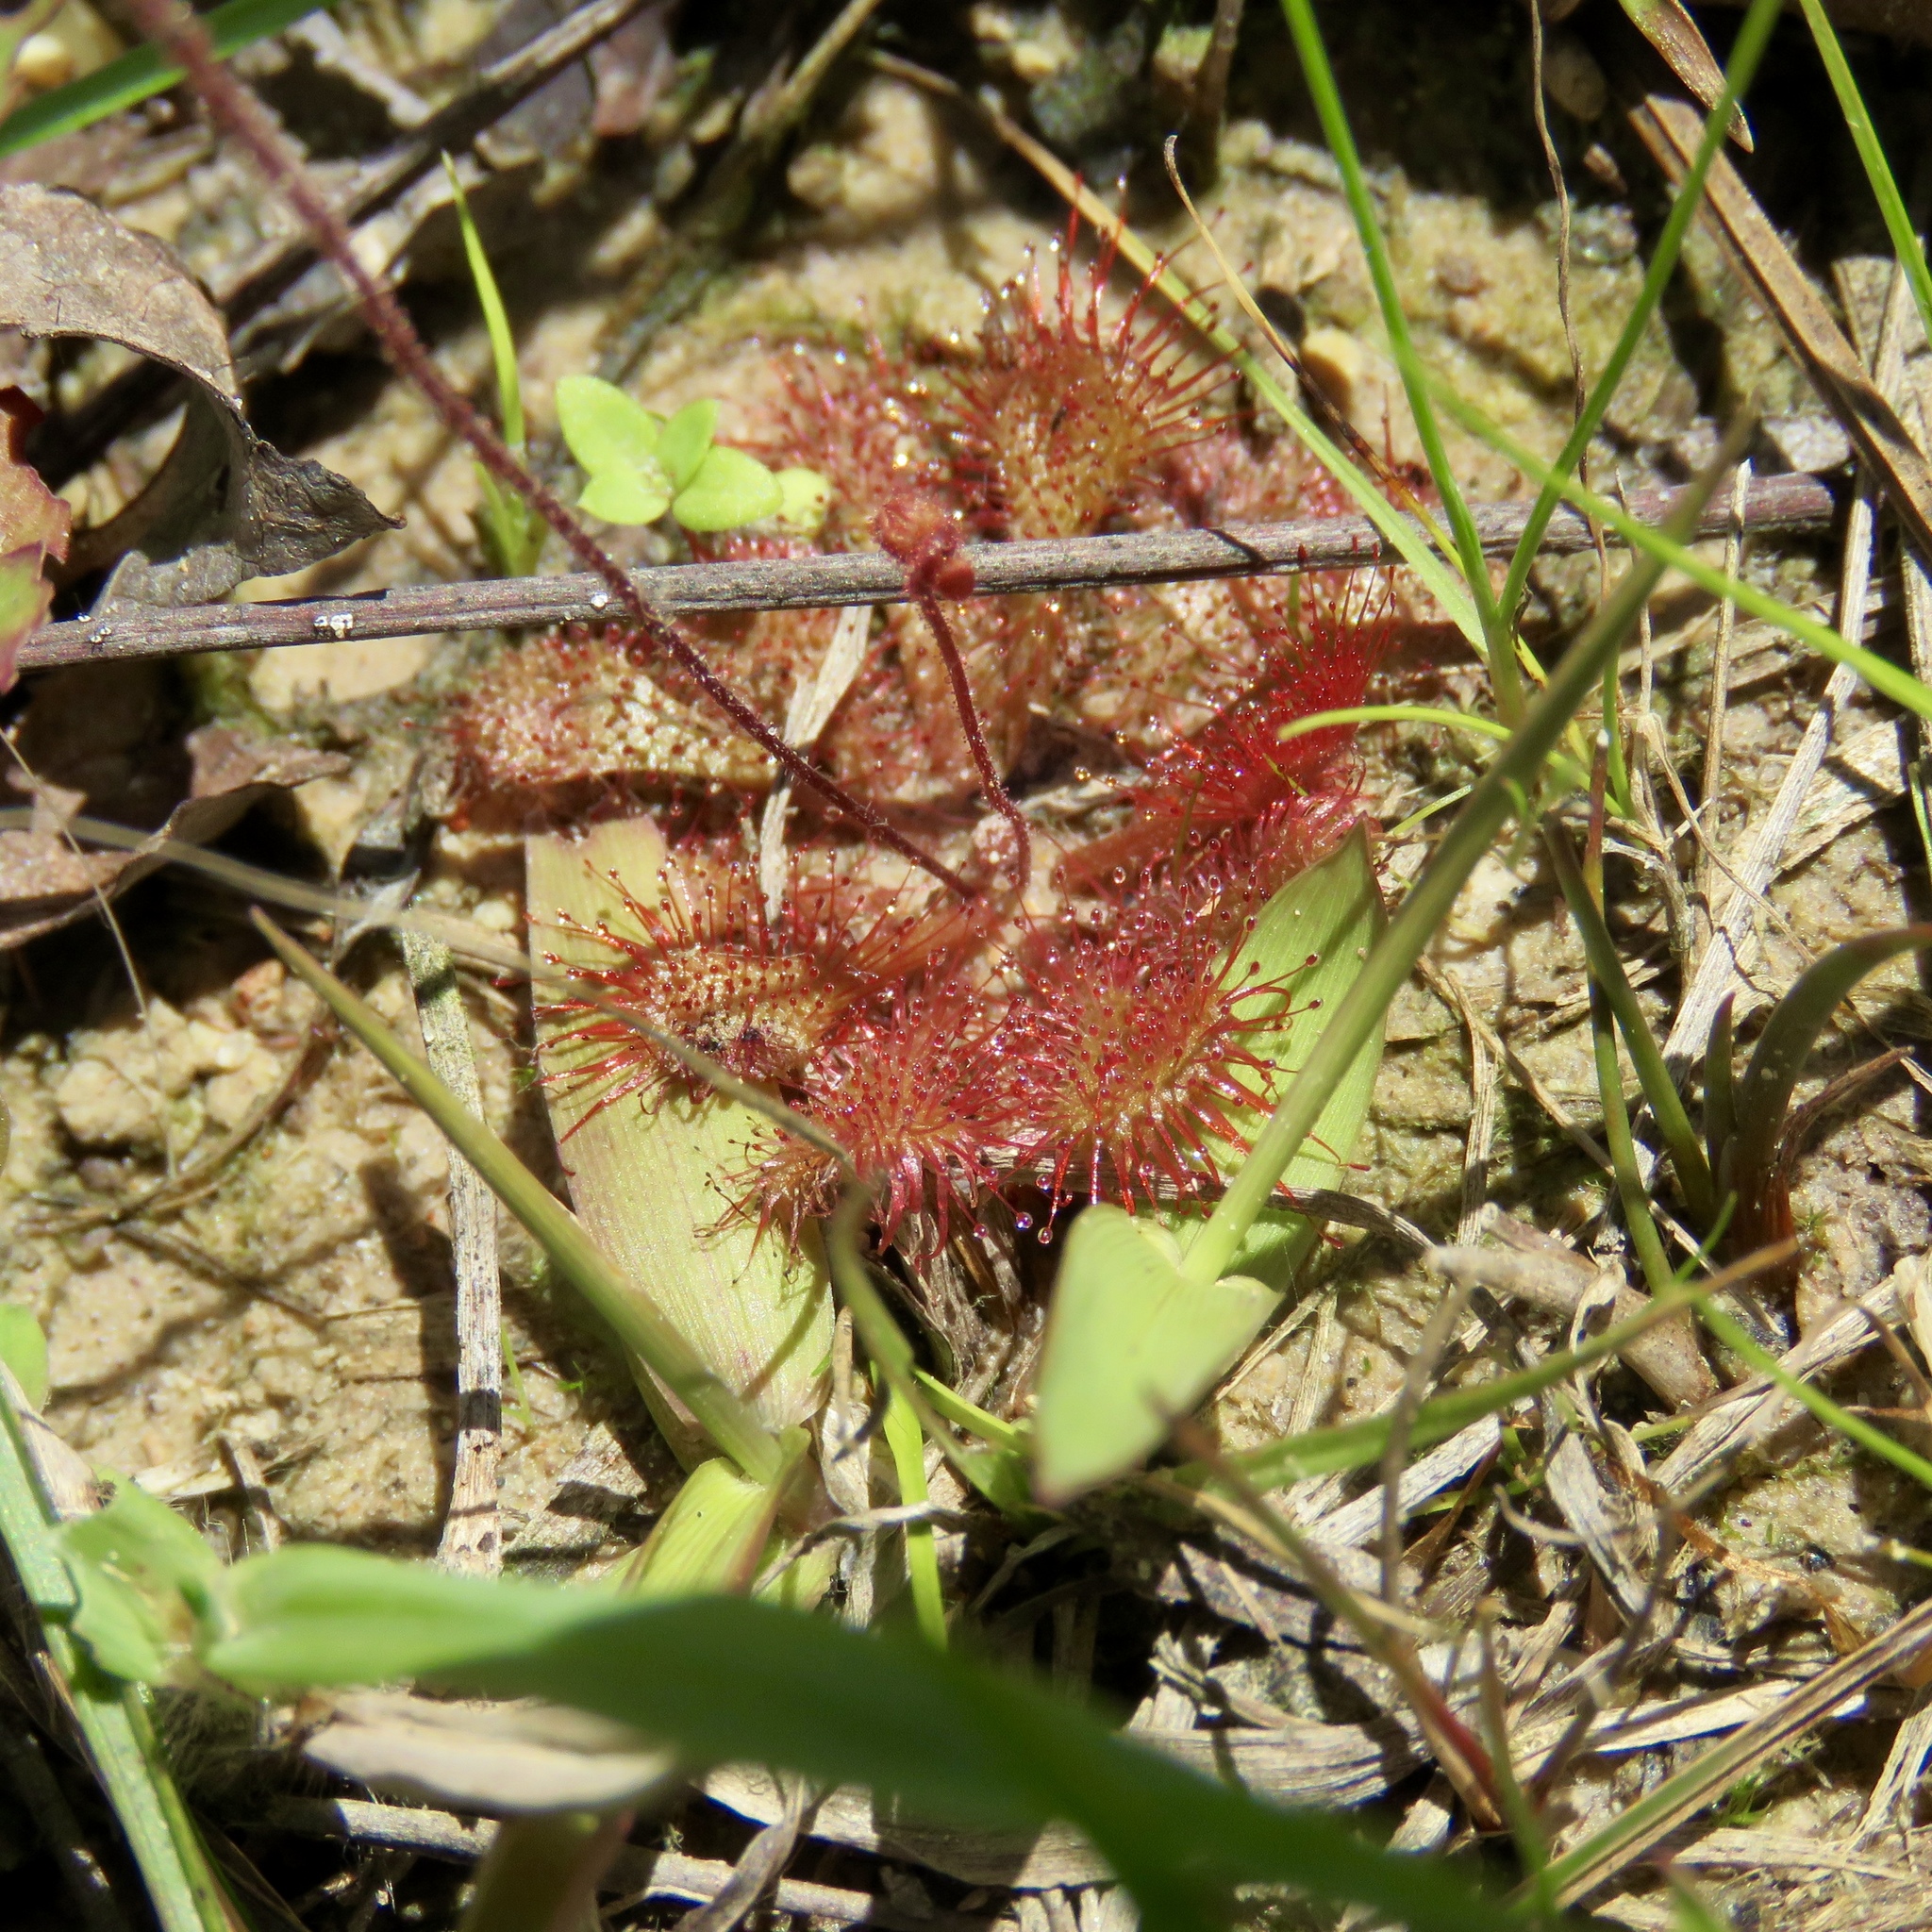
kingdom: Plantae
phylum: Tracheophyta
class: Magnoliopsida
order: Caryophyllales
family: Droseraceae
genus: Drosera
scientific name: Drosera brevifolia
